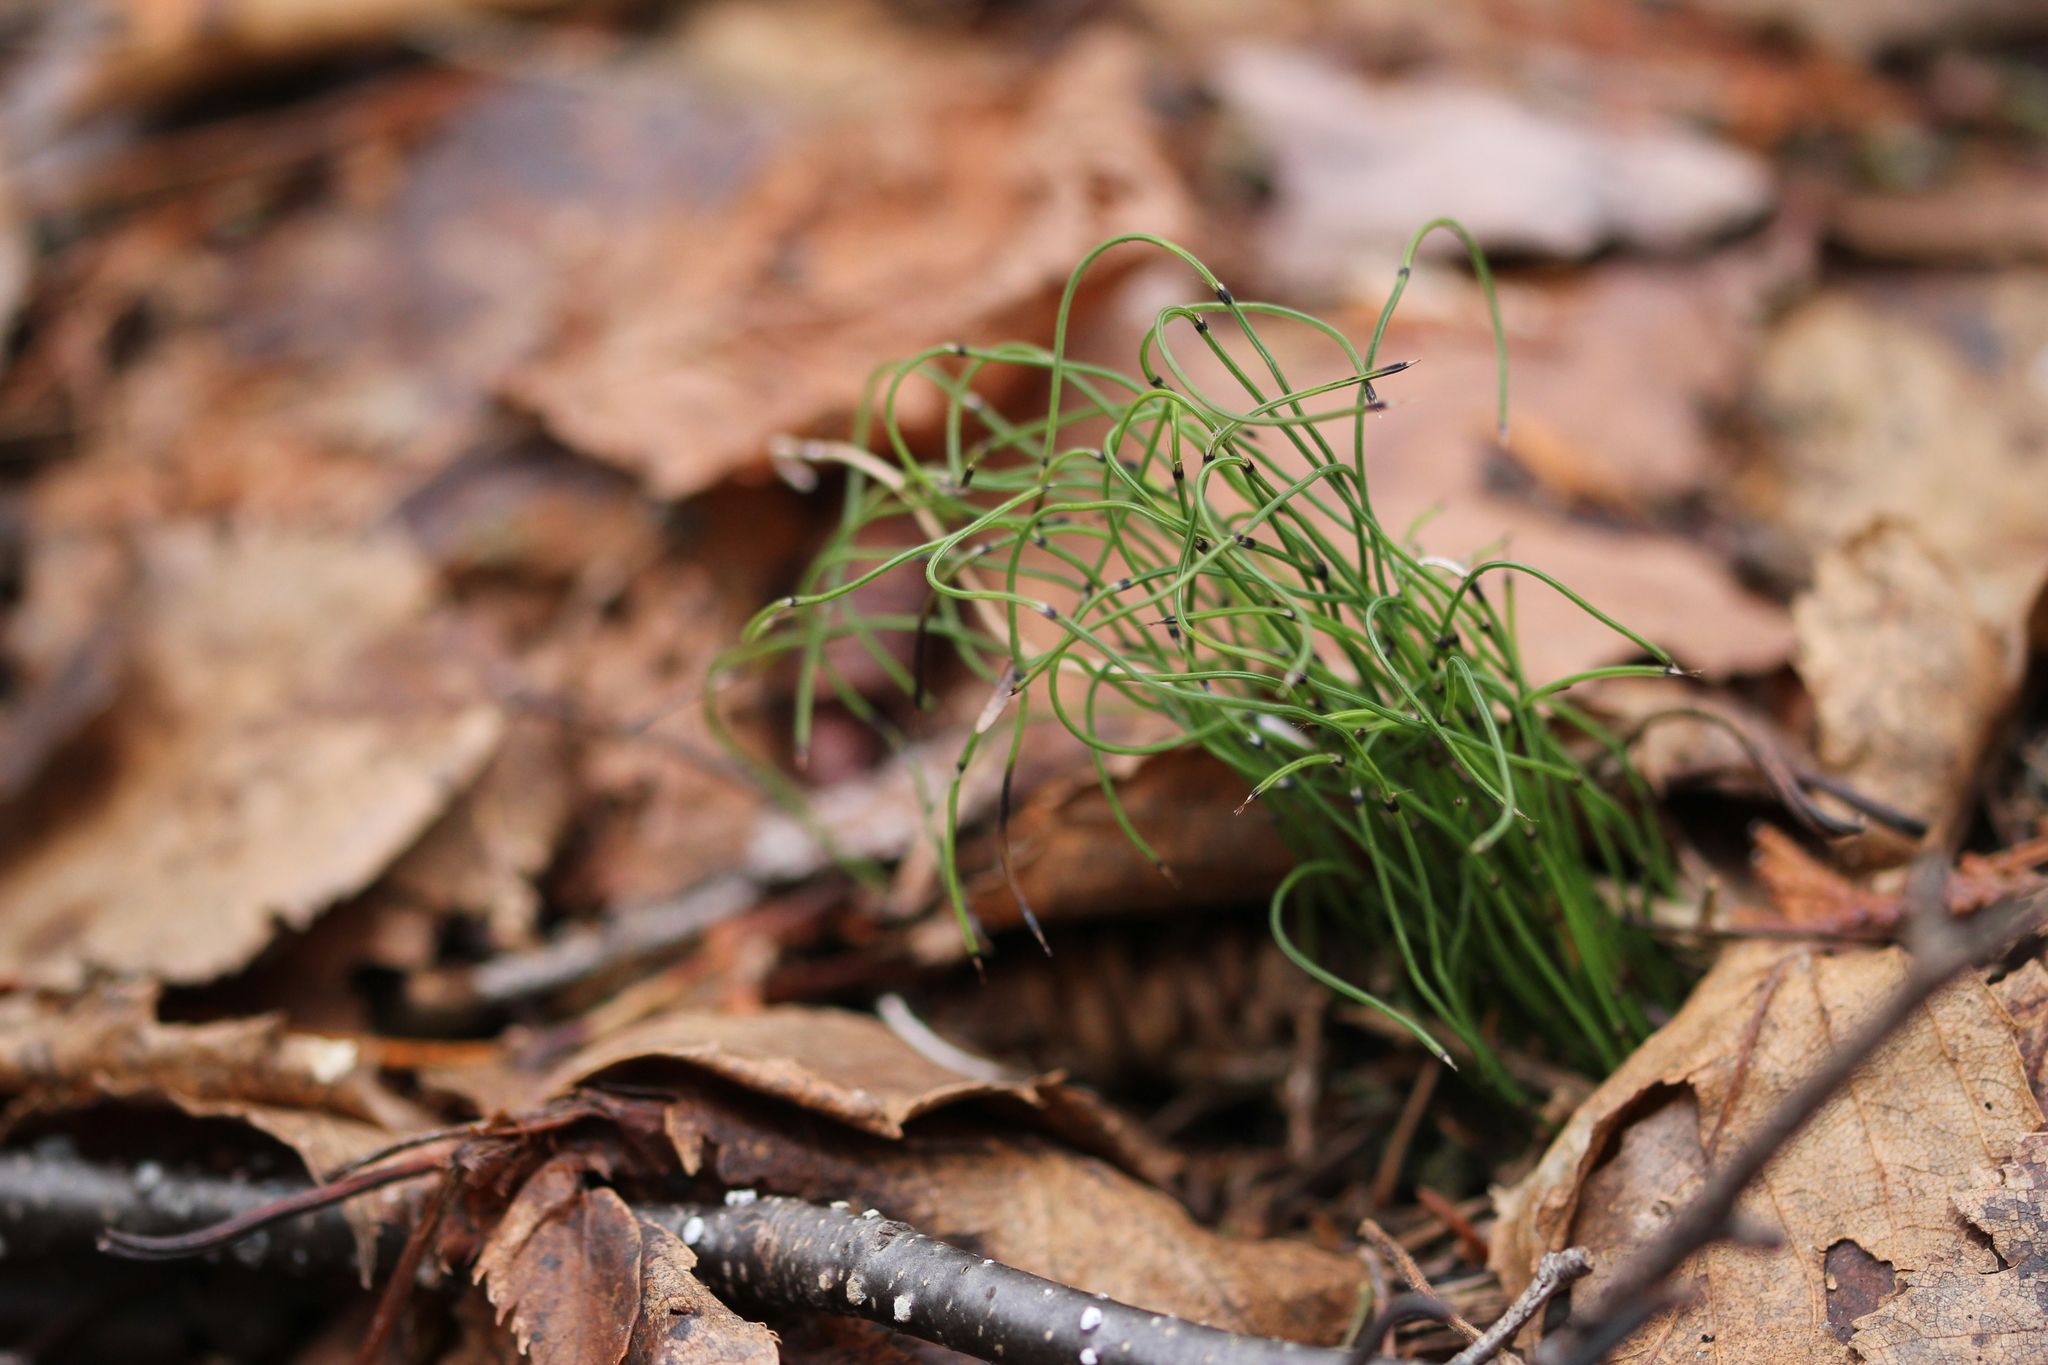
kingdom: Plantae
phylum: Tracheophyta
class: Polypodiopsida
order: Equisetales
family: Equisetaceae
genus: Equisetum
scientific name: Equisetum scirpoides
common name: Delicate horsetail
